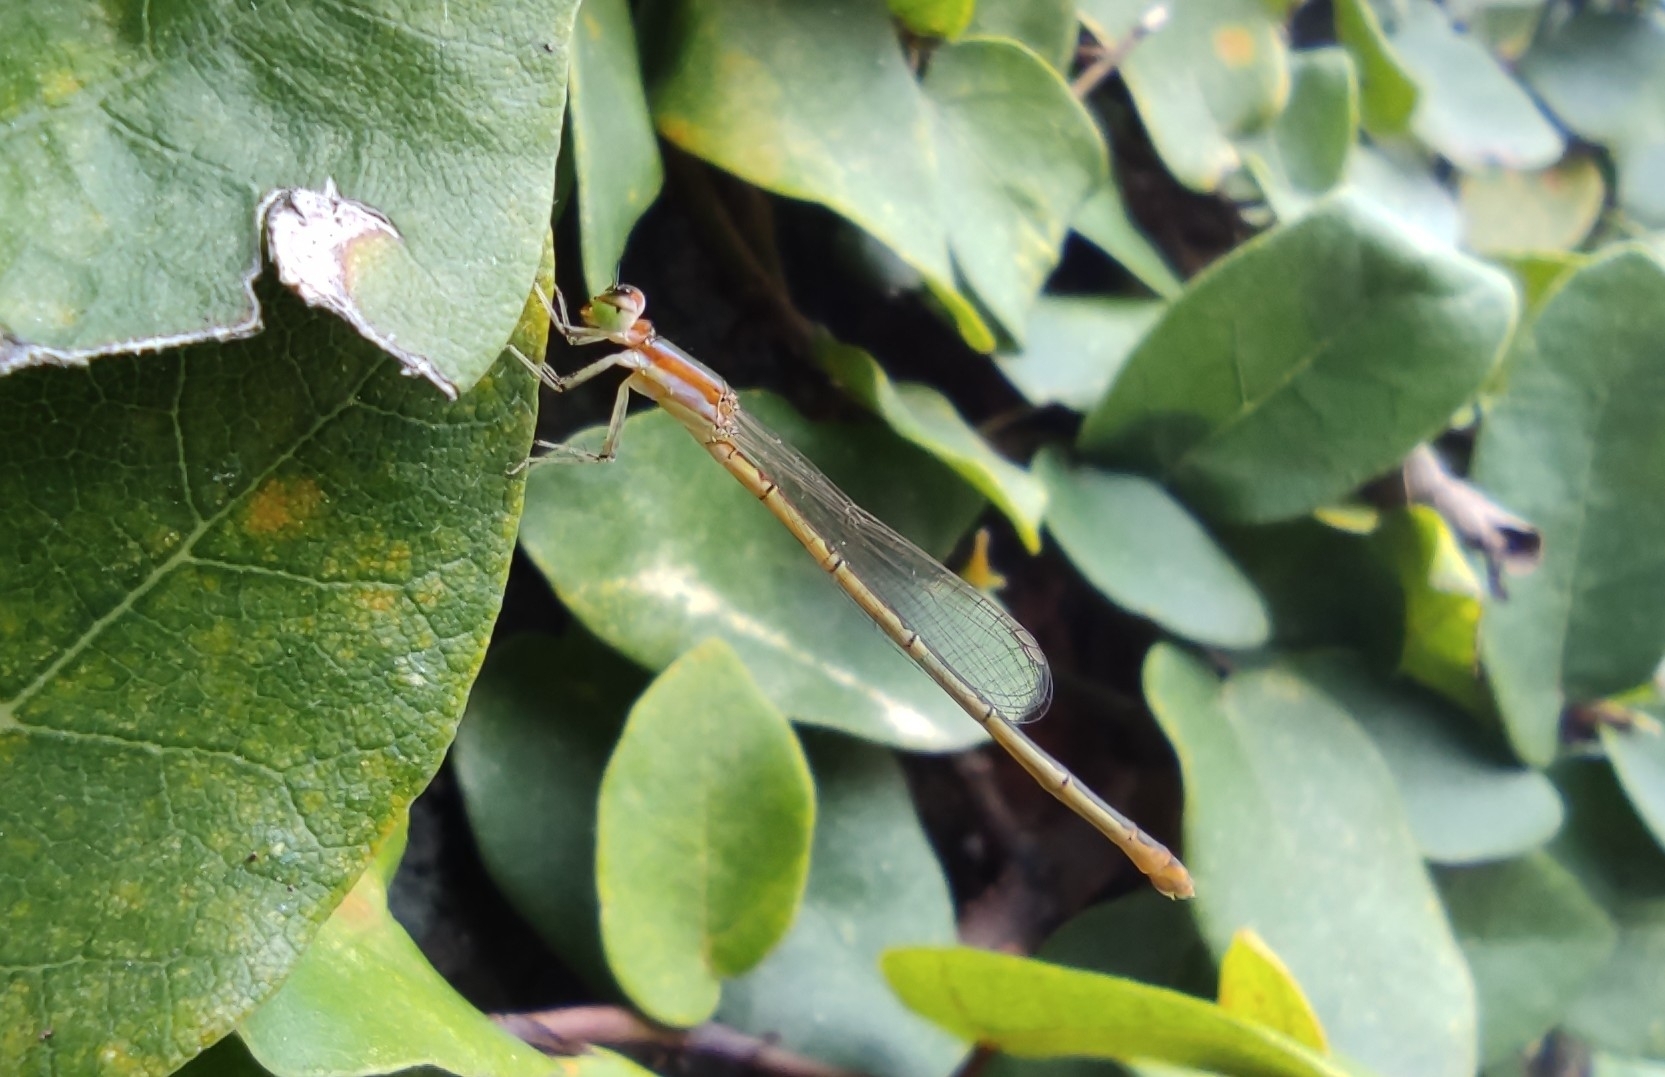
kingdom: Animalia
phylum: Arthropoda
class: Insecta
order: Odonata
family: Coenagrionidae
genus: Agriocnemis
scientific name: Agriocnemis pygmaea
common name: Pygmy wisp
